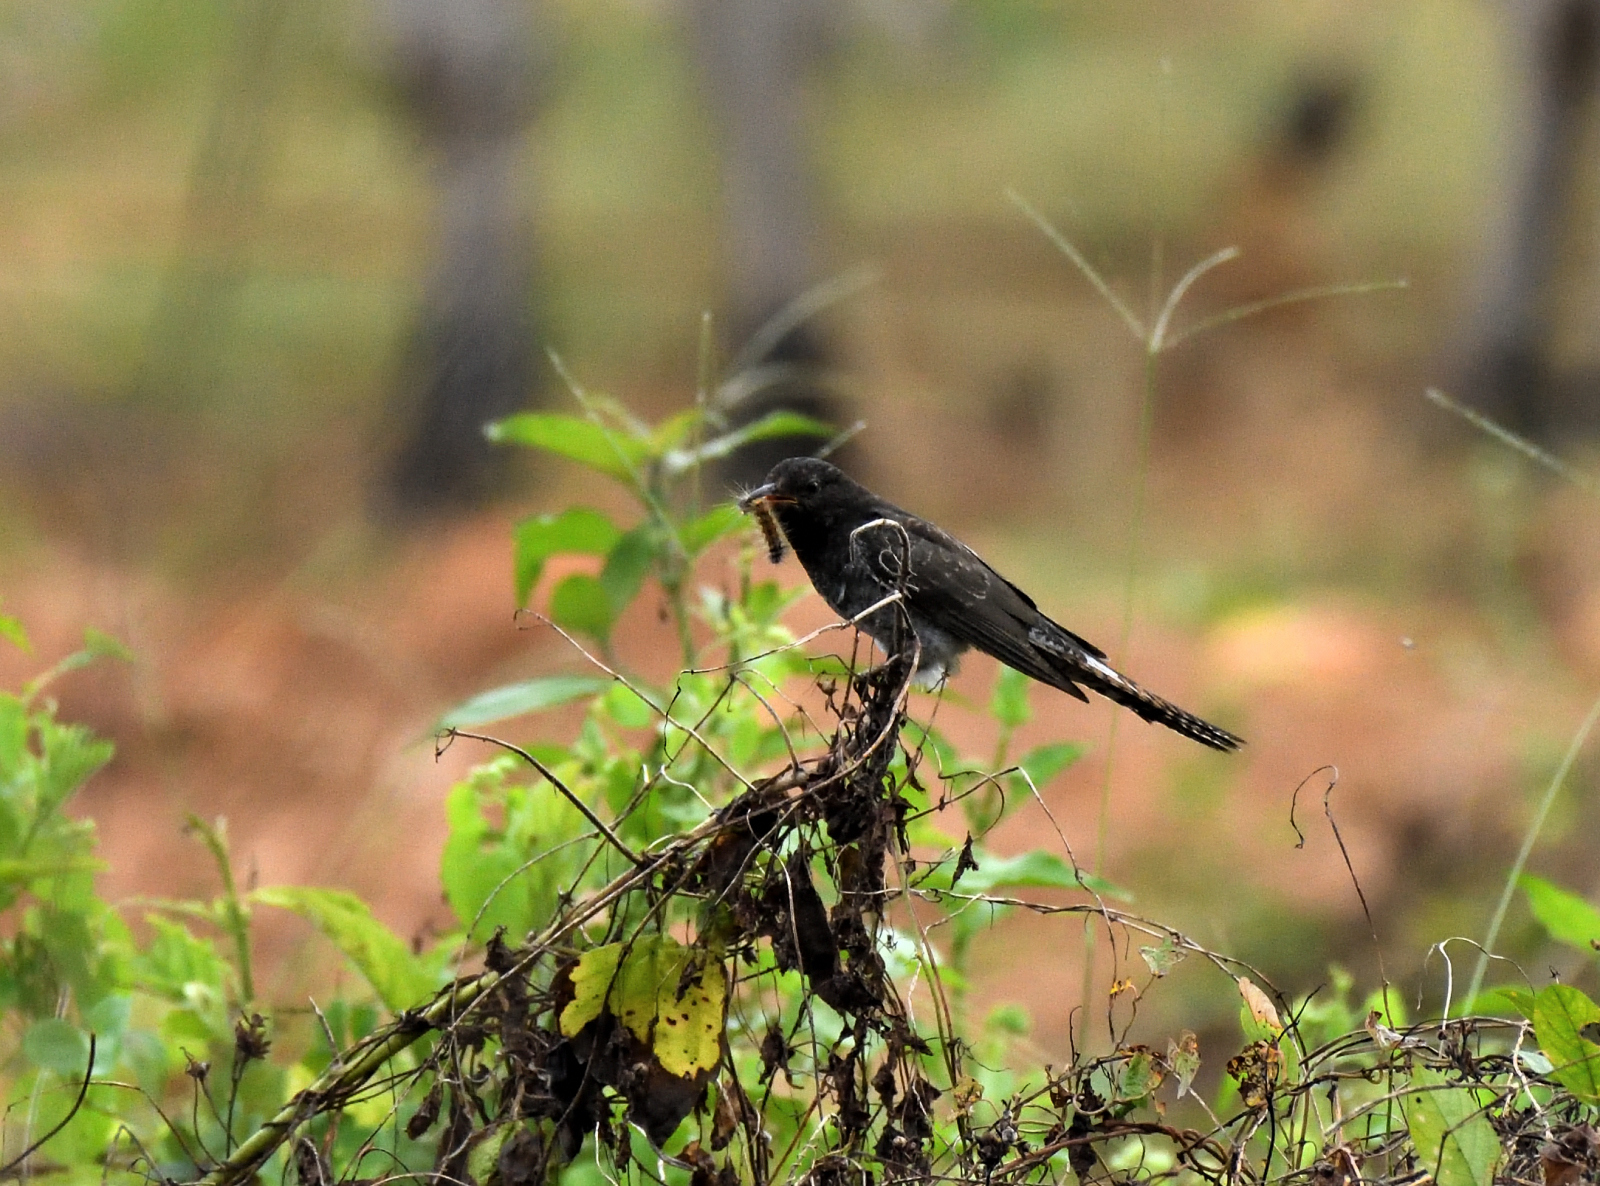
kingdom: Animalia
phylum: Chordata
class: Aves
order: Cuculiformes
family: Cuculidae
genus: Cacomantis
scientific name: Cacomantis passerinus
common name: Grey-bellied cuckoo
